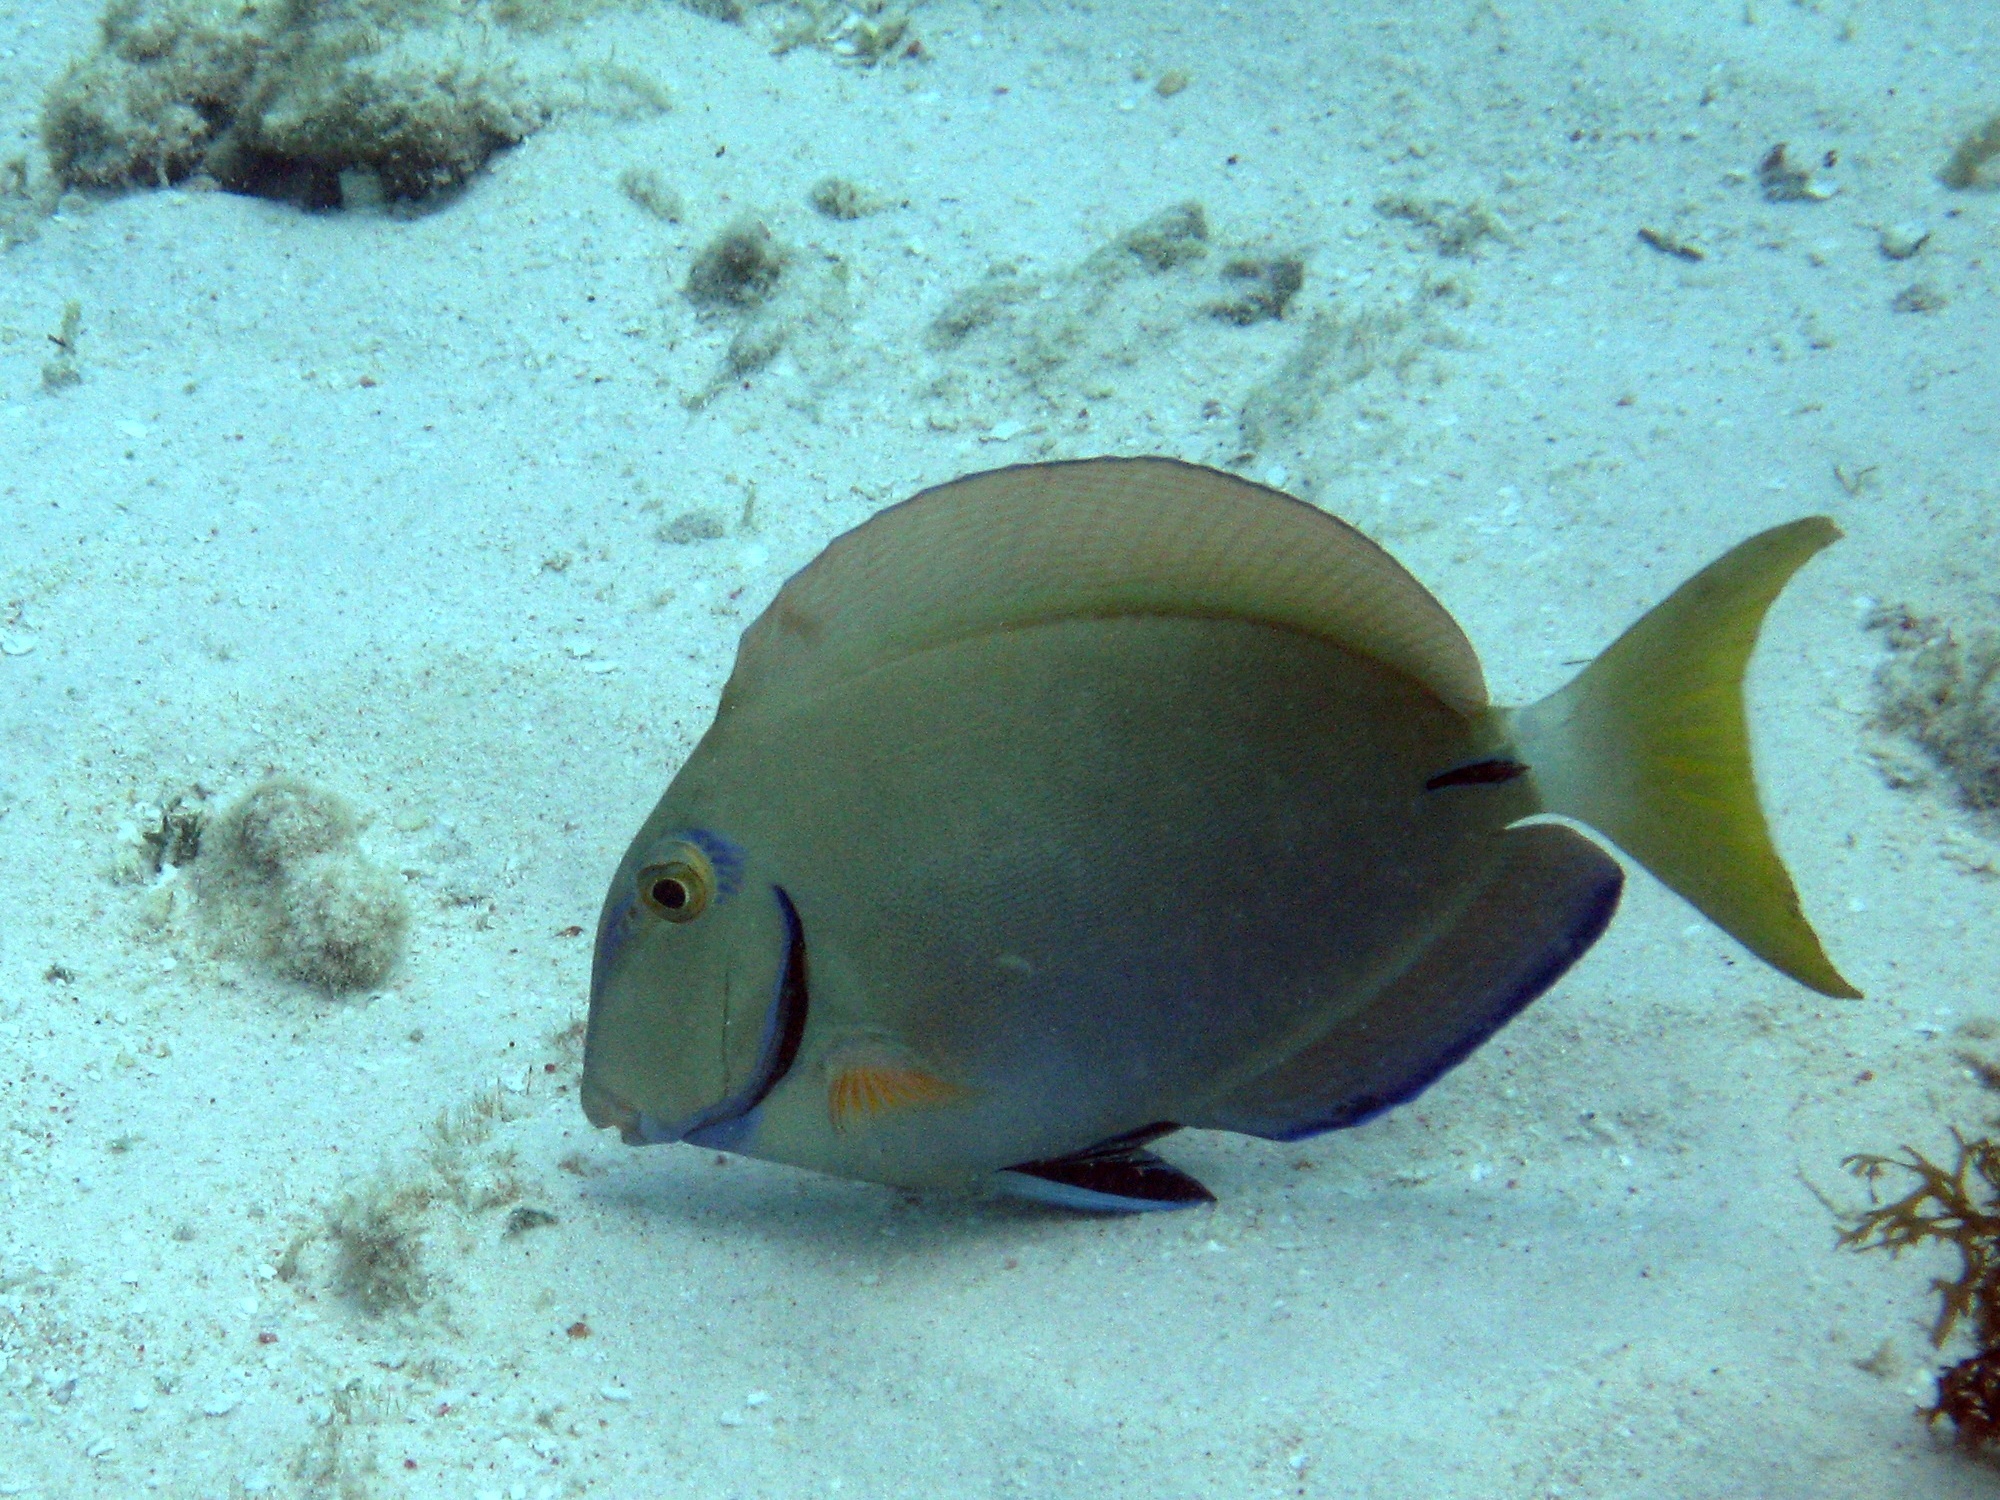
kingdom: Animalia
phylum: Chordata
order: Perciformes
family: Acanthuridae
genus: Acanthurus
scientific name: Acanthurus bahianus
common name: Ocean surgeon
